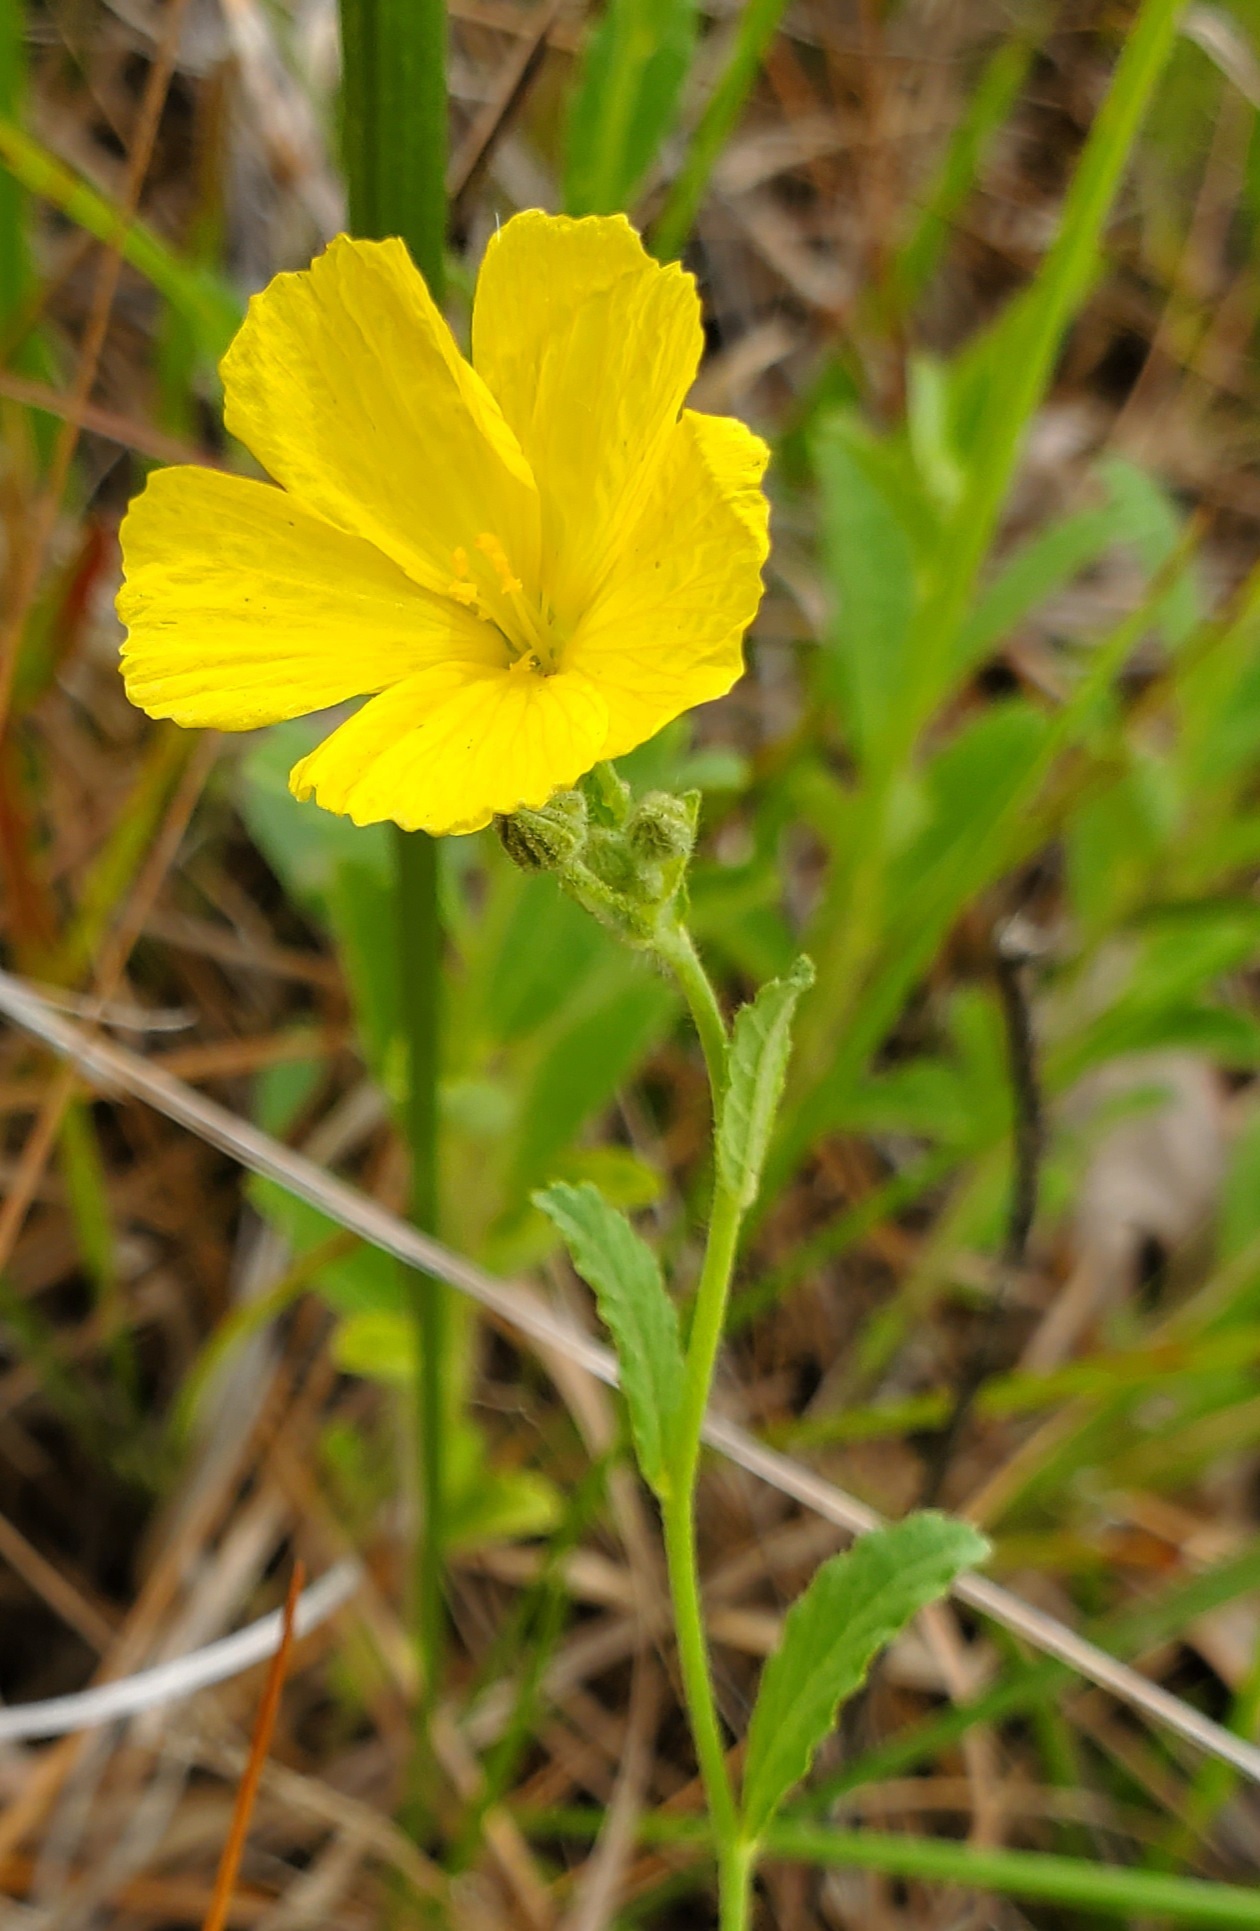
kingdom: Plantae
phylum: Tracheophyta
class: Magnoliopsida
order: Malpighiales
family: Turneraceae
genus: Piriqueta
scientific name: Piriqueta cistoides
